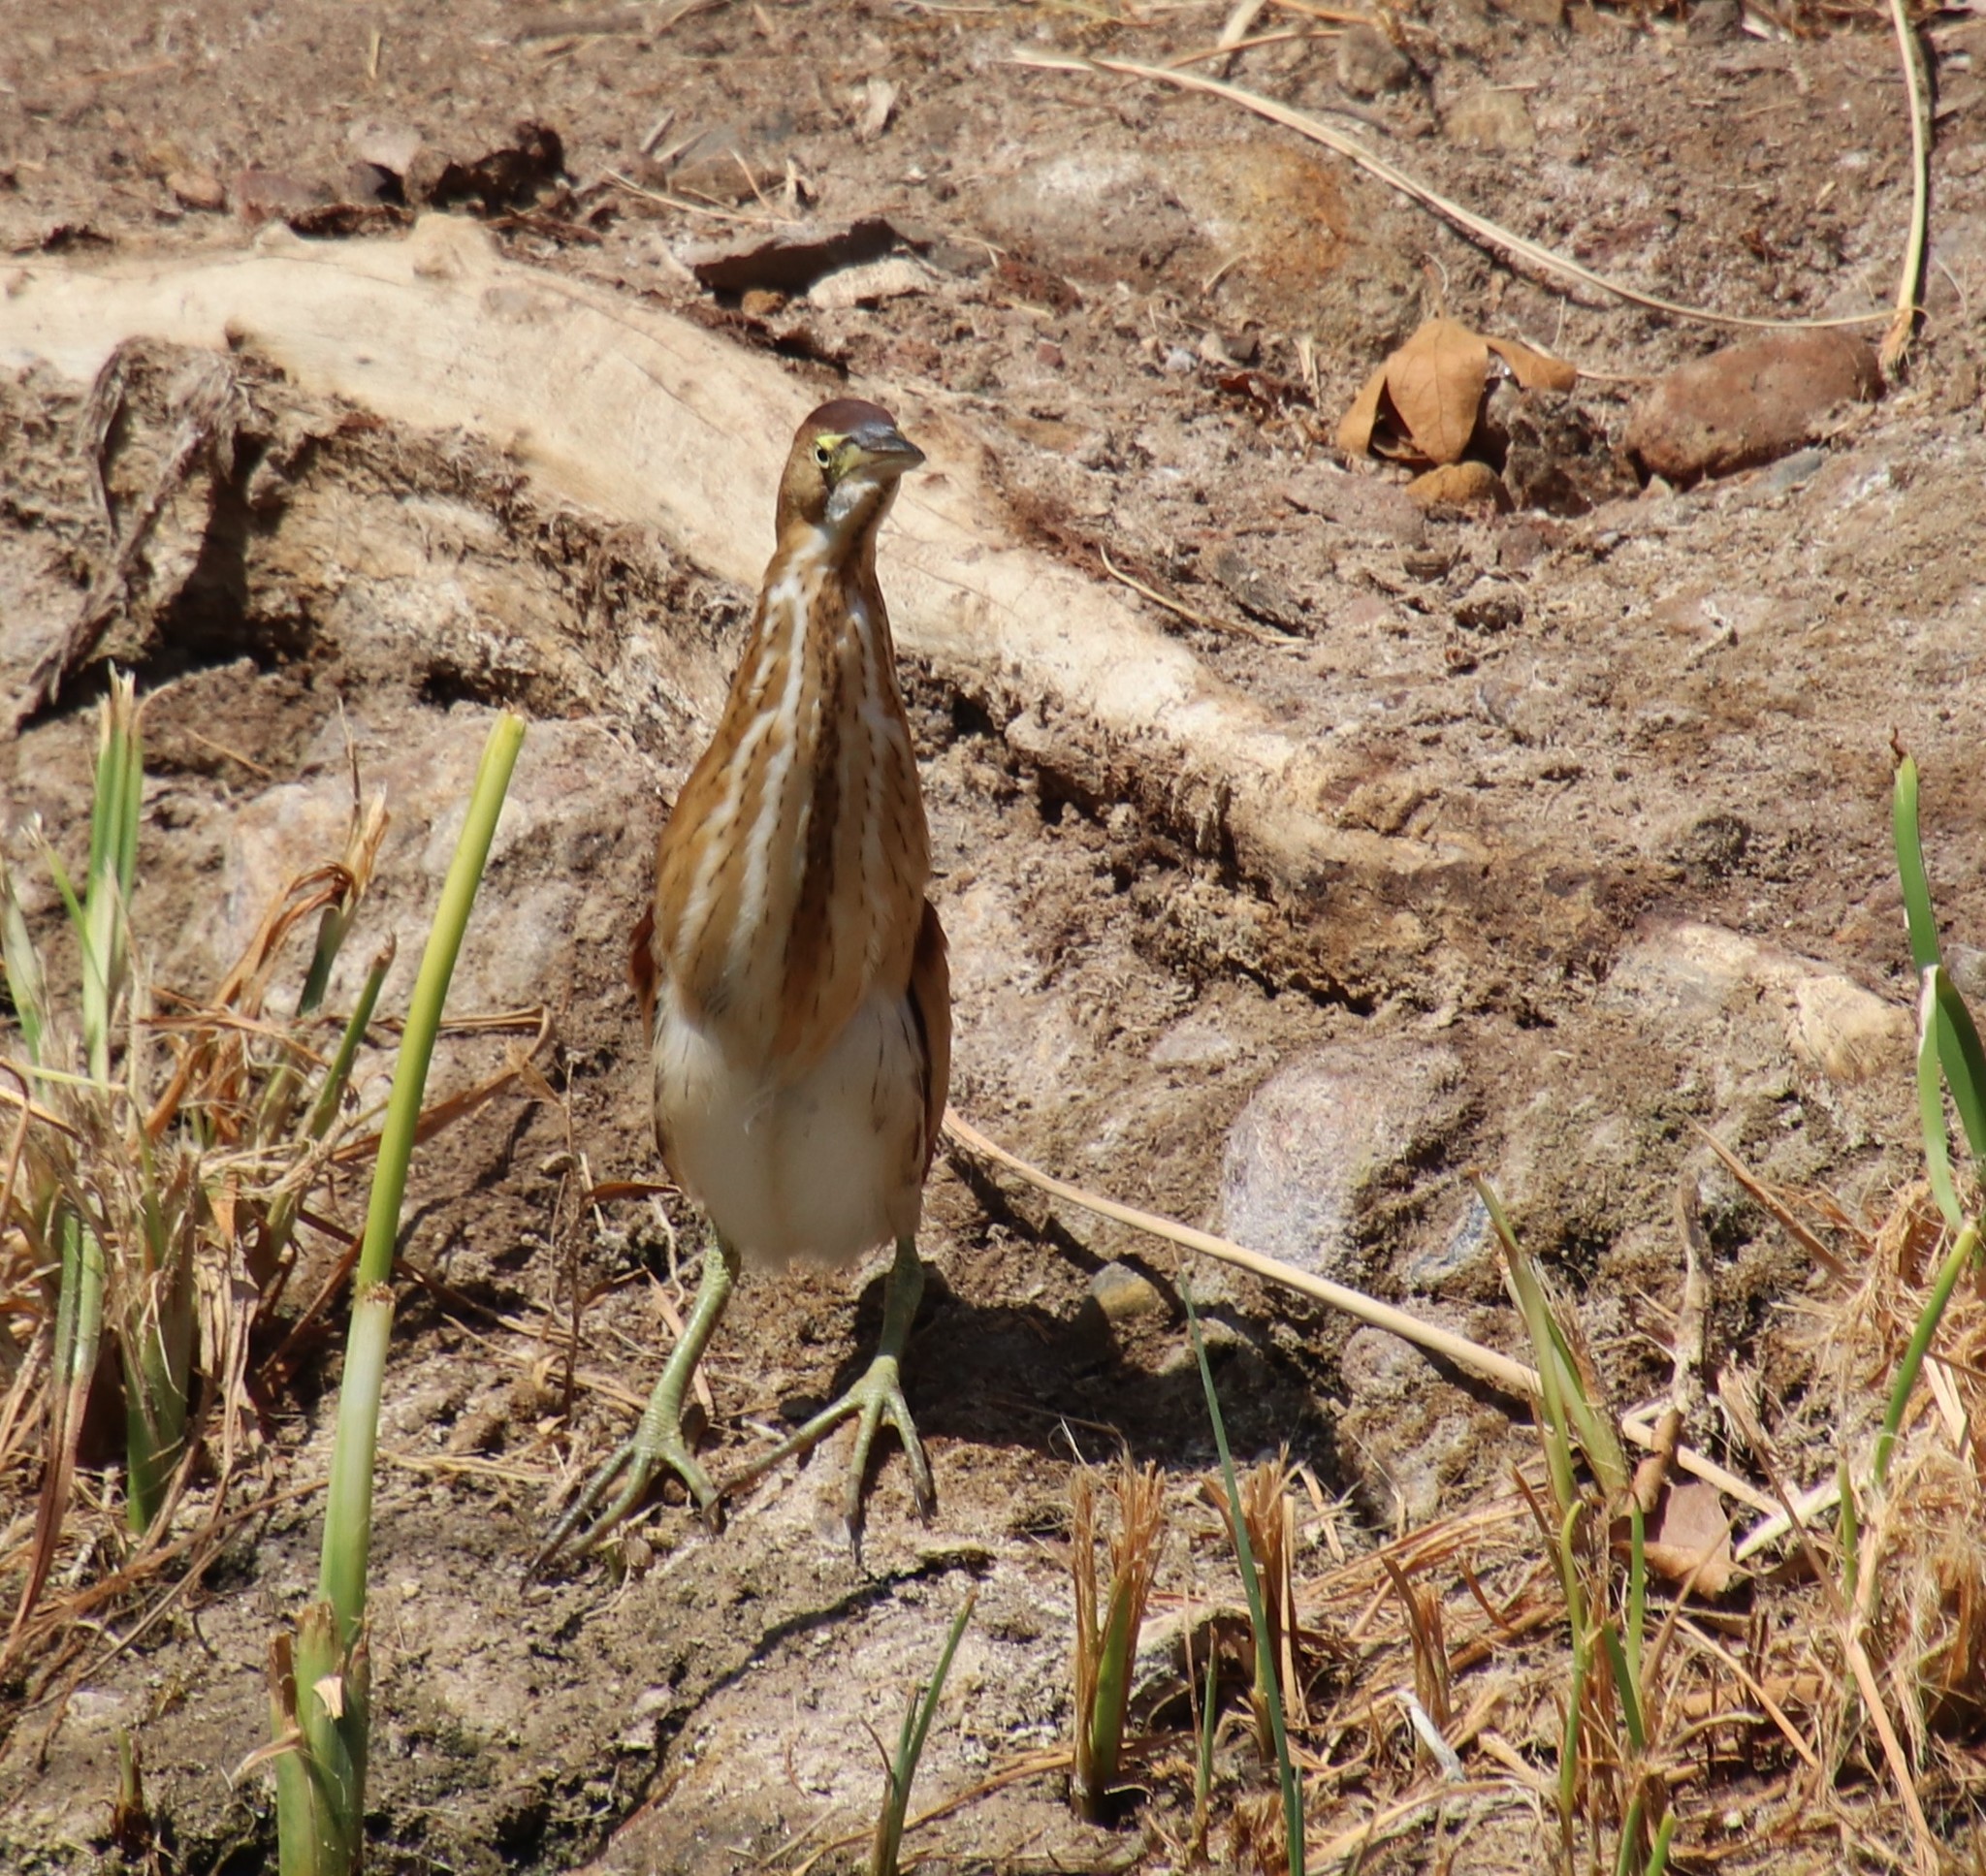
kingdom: Animalia
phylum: Chordata
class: Aves
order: Pelecaniformes
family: Ardeidae
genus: Ixobrychus
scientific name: Ixobrychus exilis
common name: Least bittern
